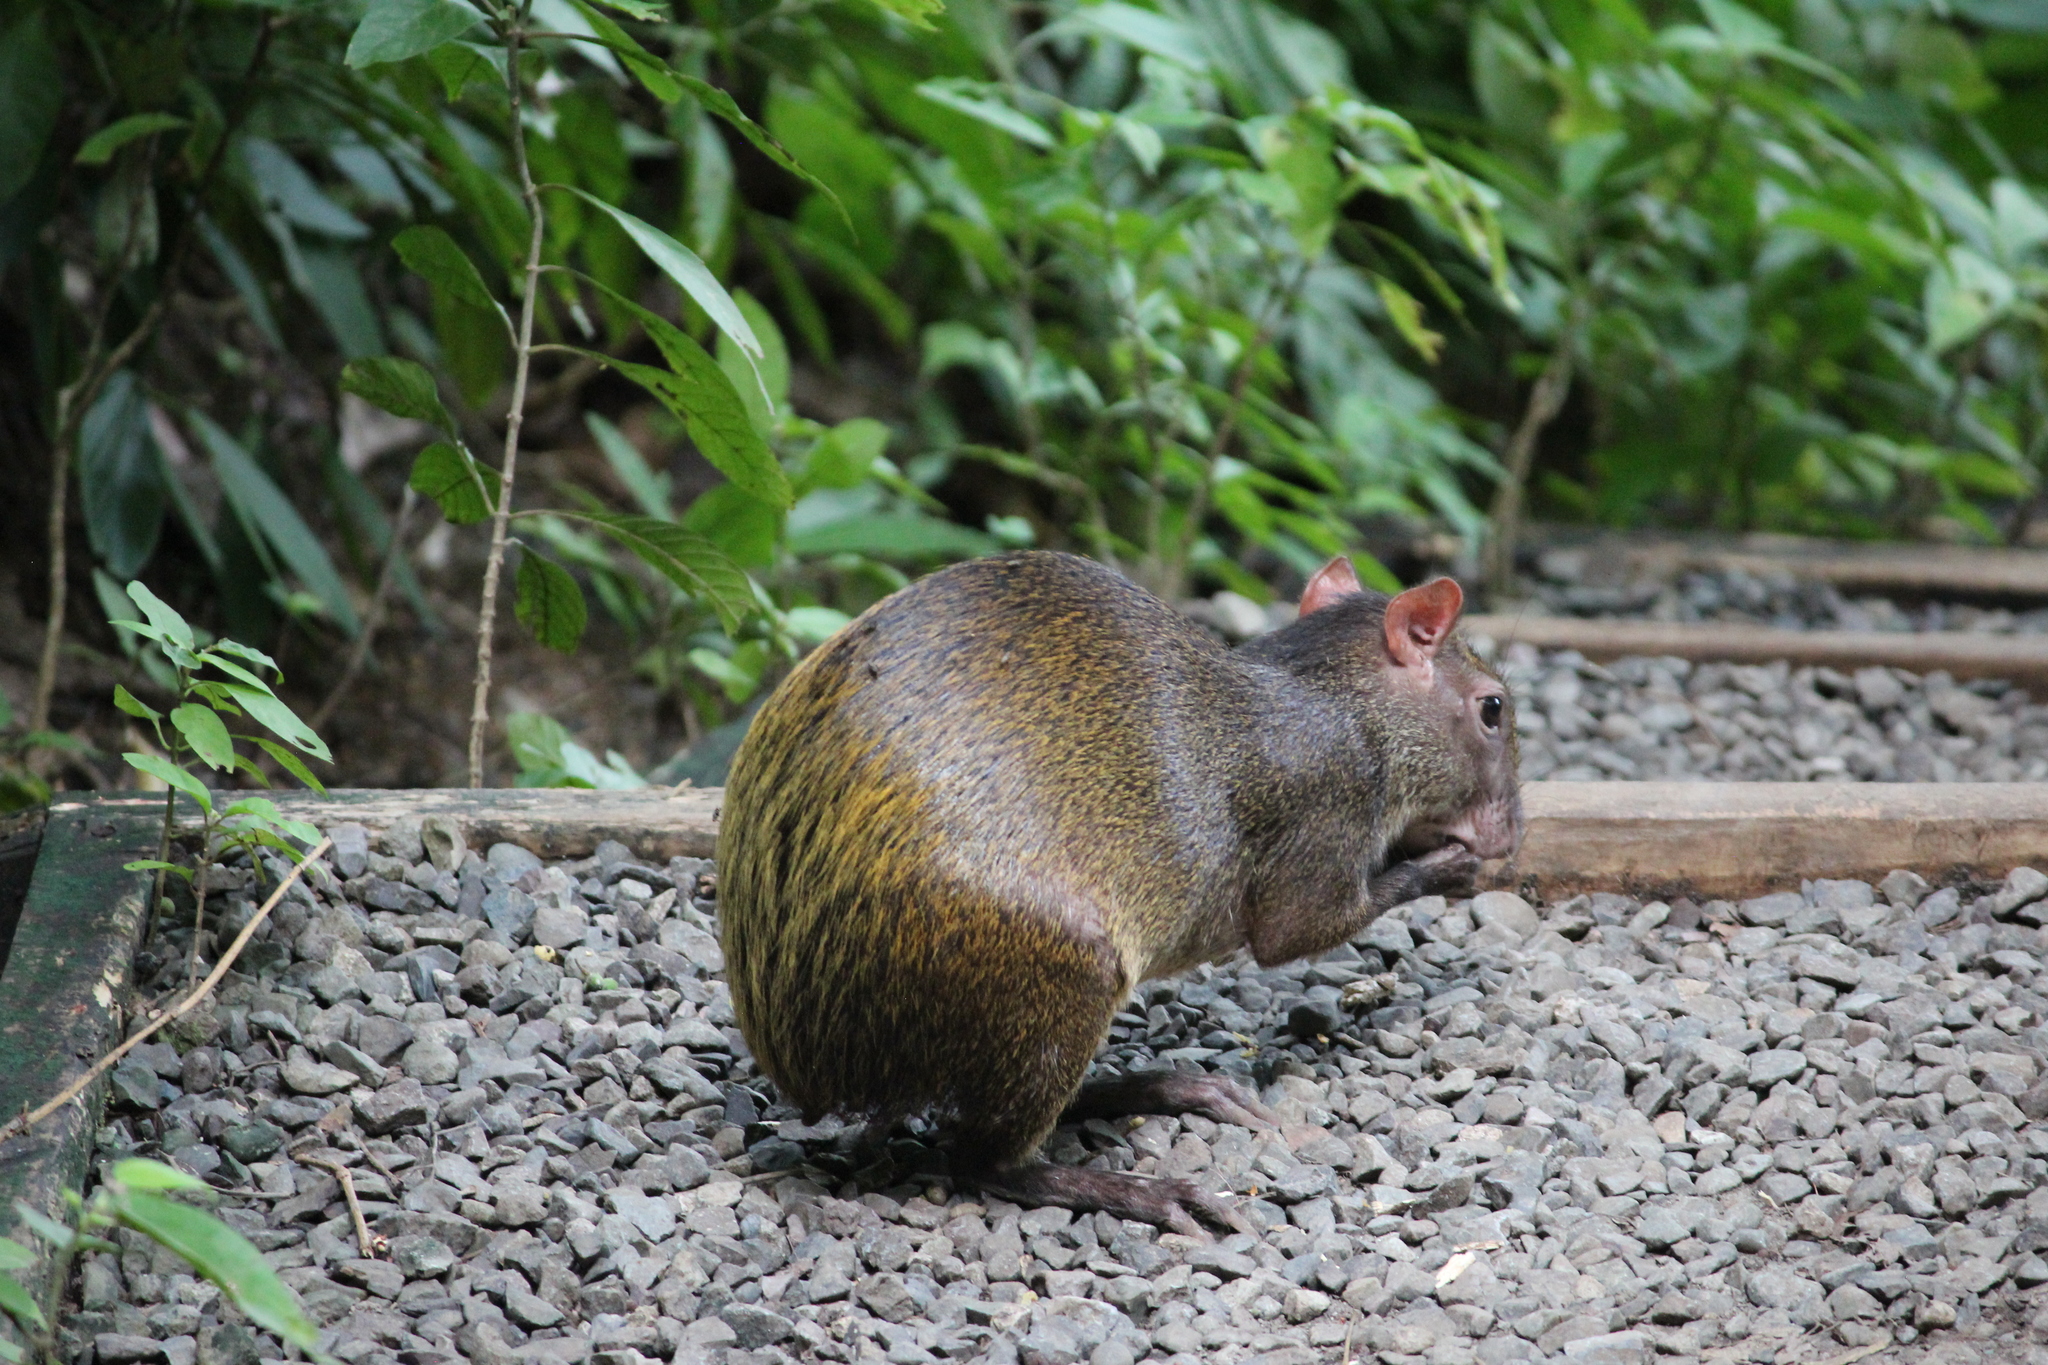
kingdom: Animalia
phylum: Chordata
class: Mammalia
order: Rodentia
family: Dasyproctidae
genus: Dasyprocta
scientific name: Dasyprocta punctata
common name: Central american agouti
